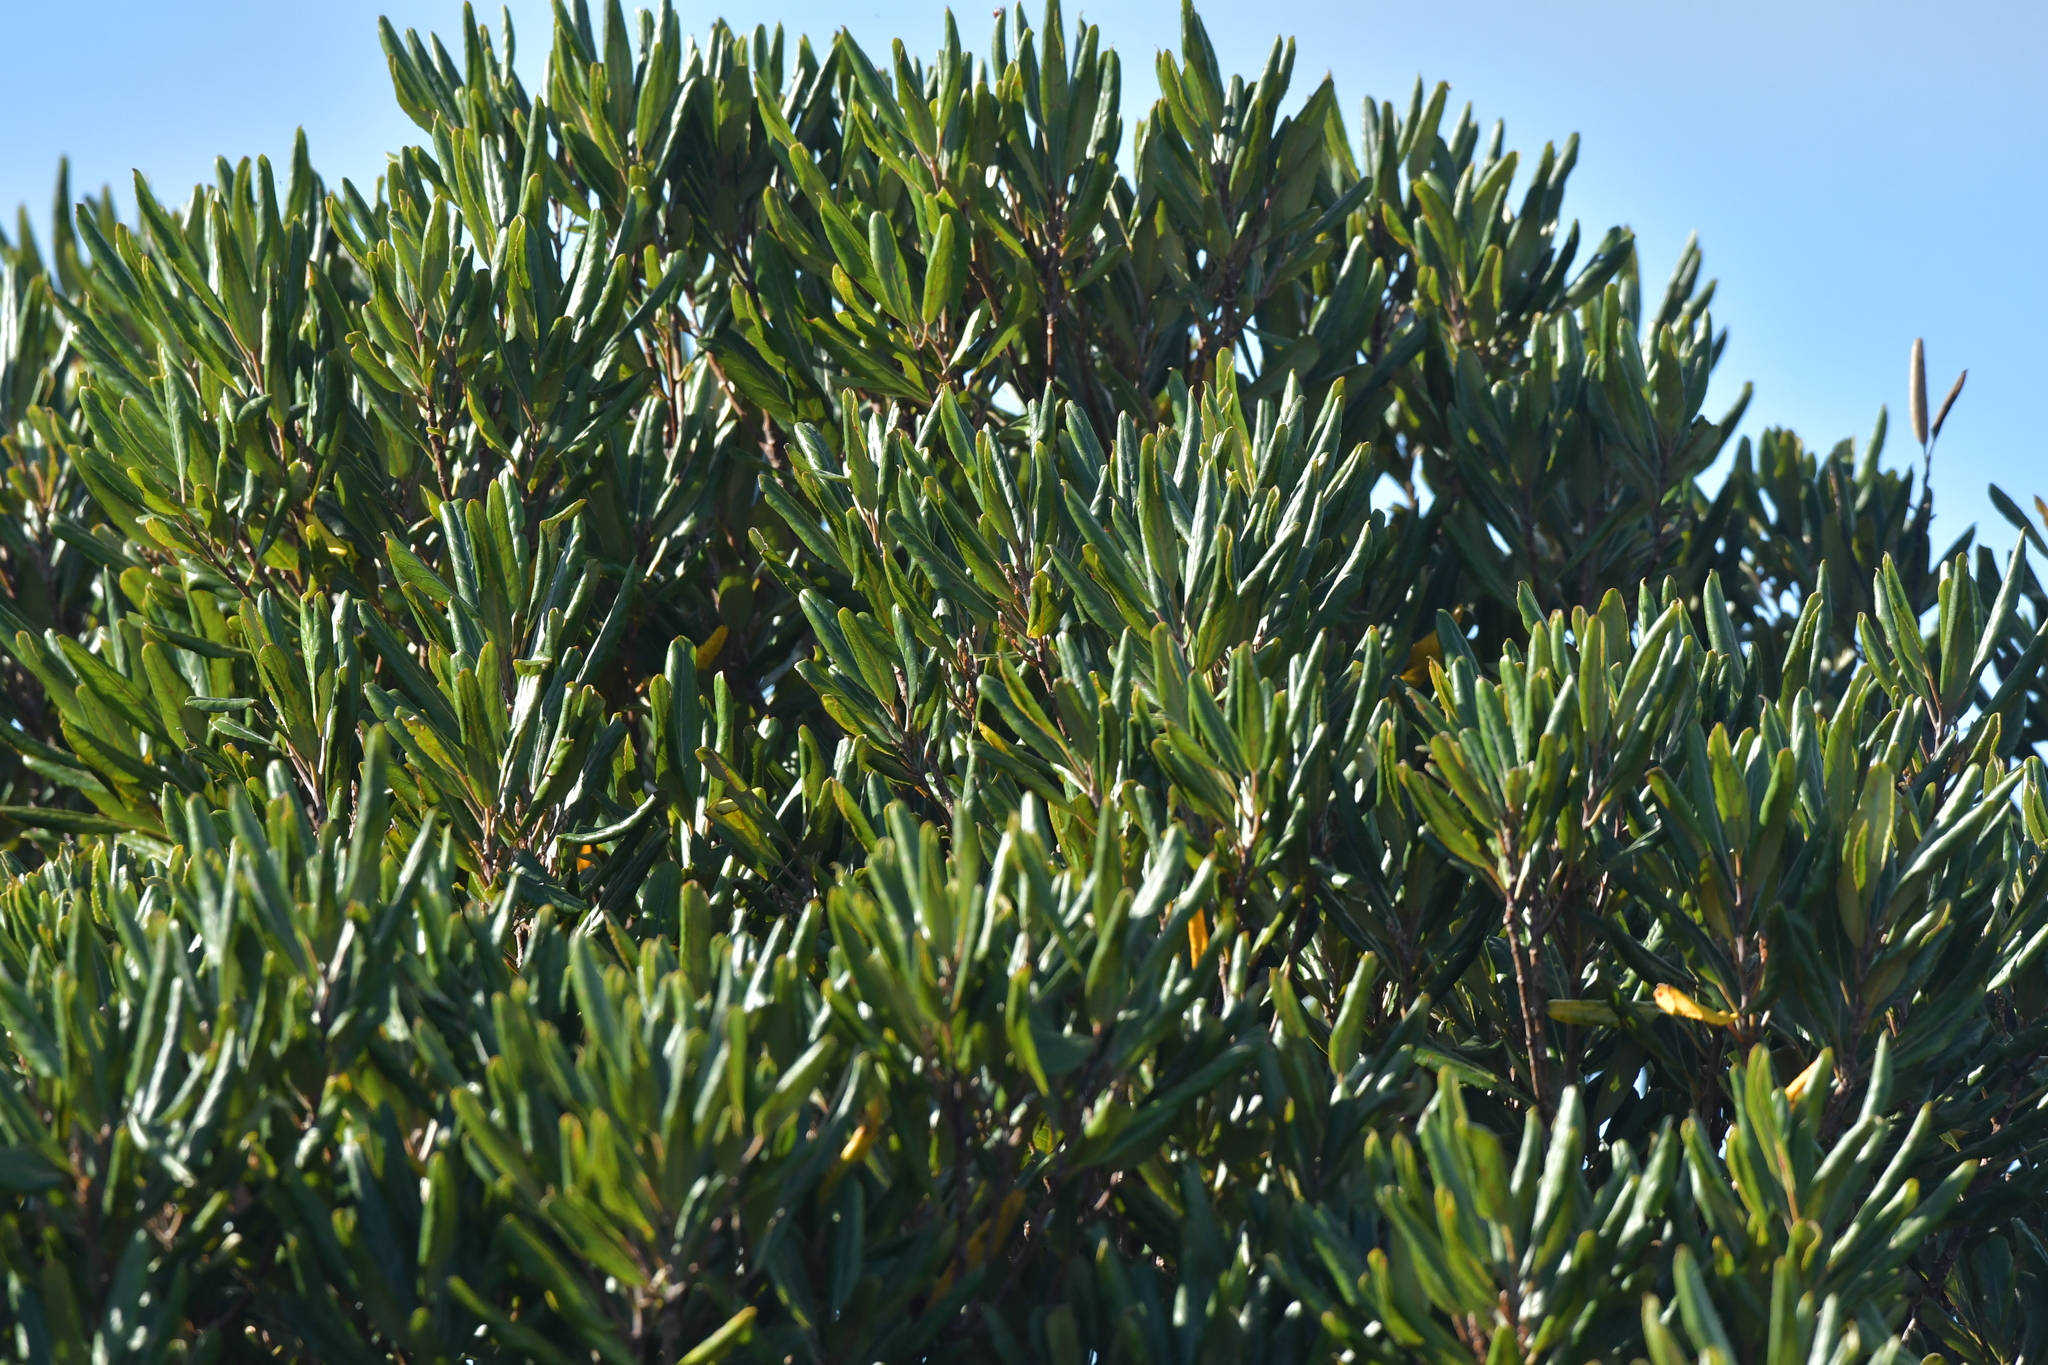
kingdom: Plantae
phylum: Tracheophyta
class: Magnoliopsida
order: Oxalidales
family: Elaeocarpaceae
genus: Elaeocarpus
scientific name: Elaeocarpus dentatus
